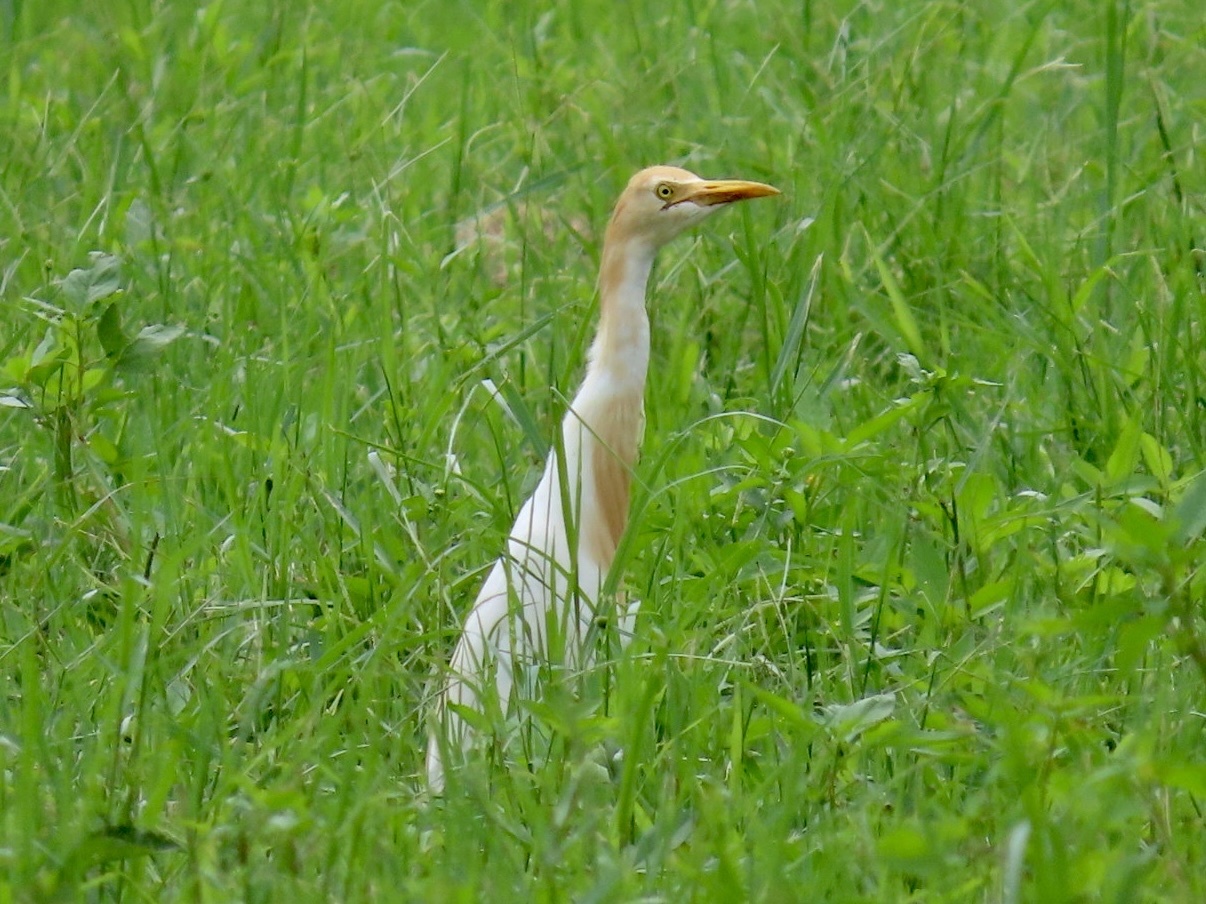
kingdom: Animalia
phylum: Chordata
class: Aves
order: Pelecaniformes
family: Ardeidae
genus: Bubulcus
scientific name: Bubulcus coromandus
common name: Eastern cattle egret
